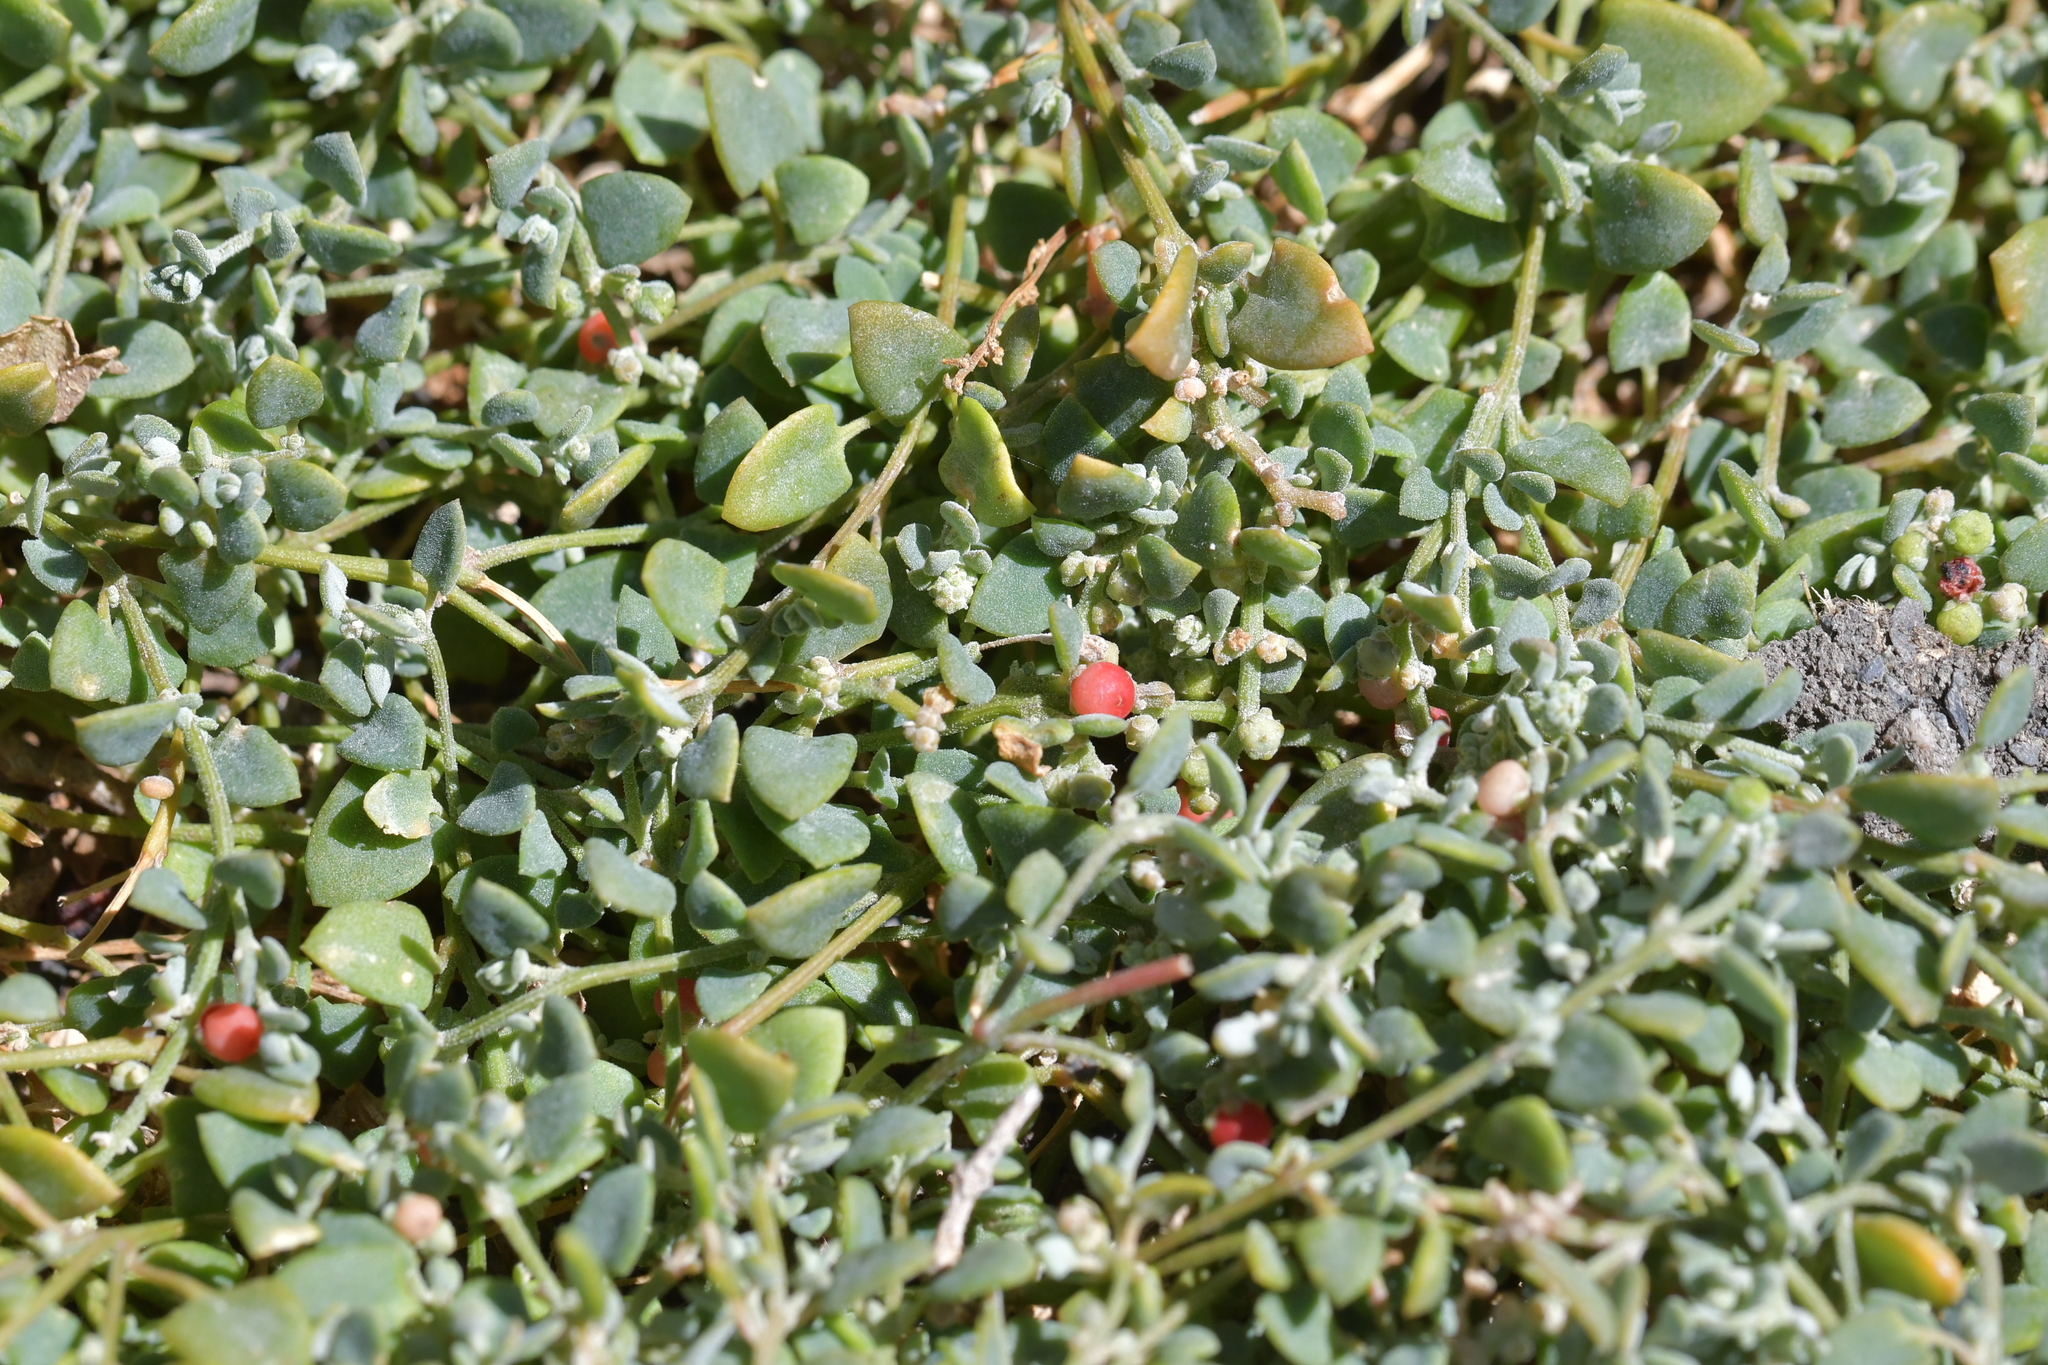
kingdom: Plantae
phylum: Tracheophyta
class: Magnoliopsida
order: Caryophyllales
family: Amaranthaceae
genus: Chenopodium
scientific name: Chenopodium triandrum
